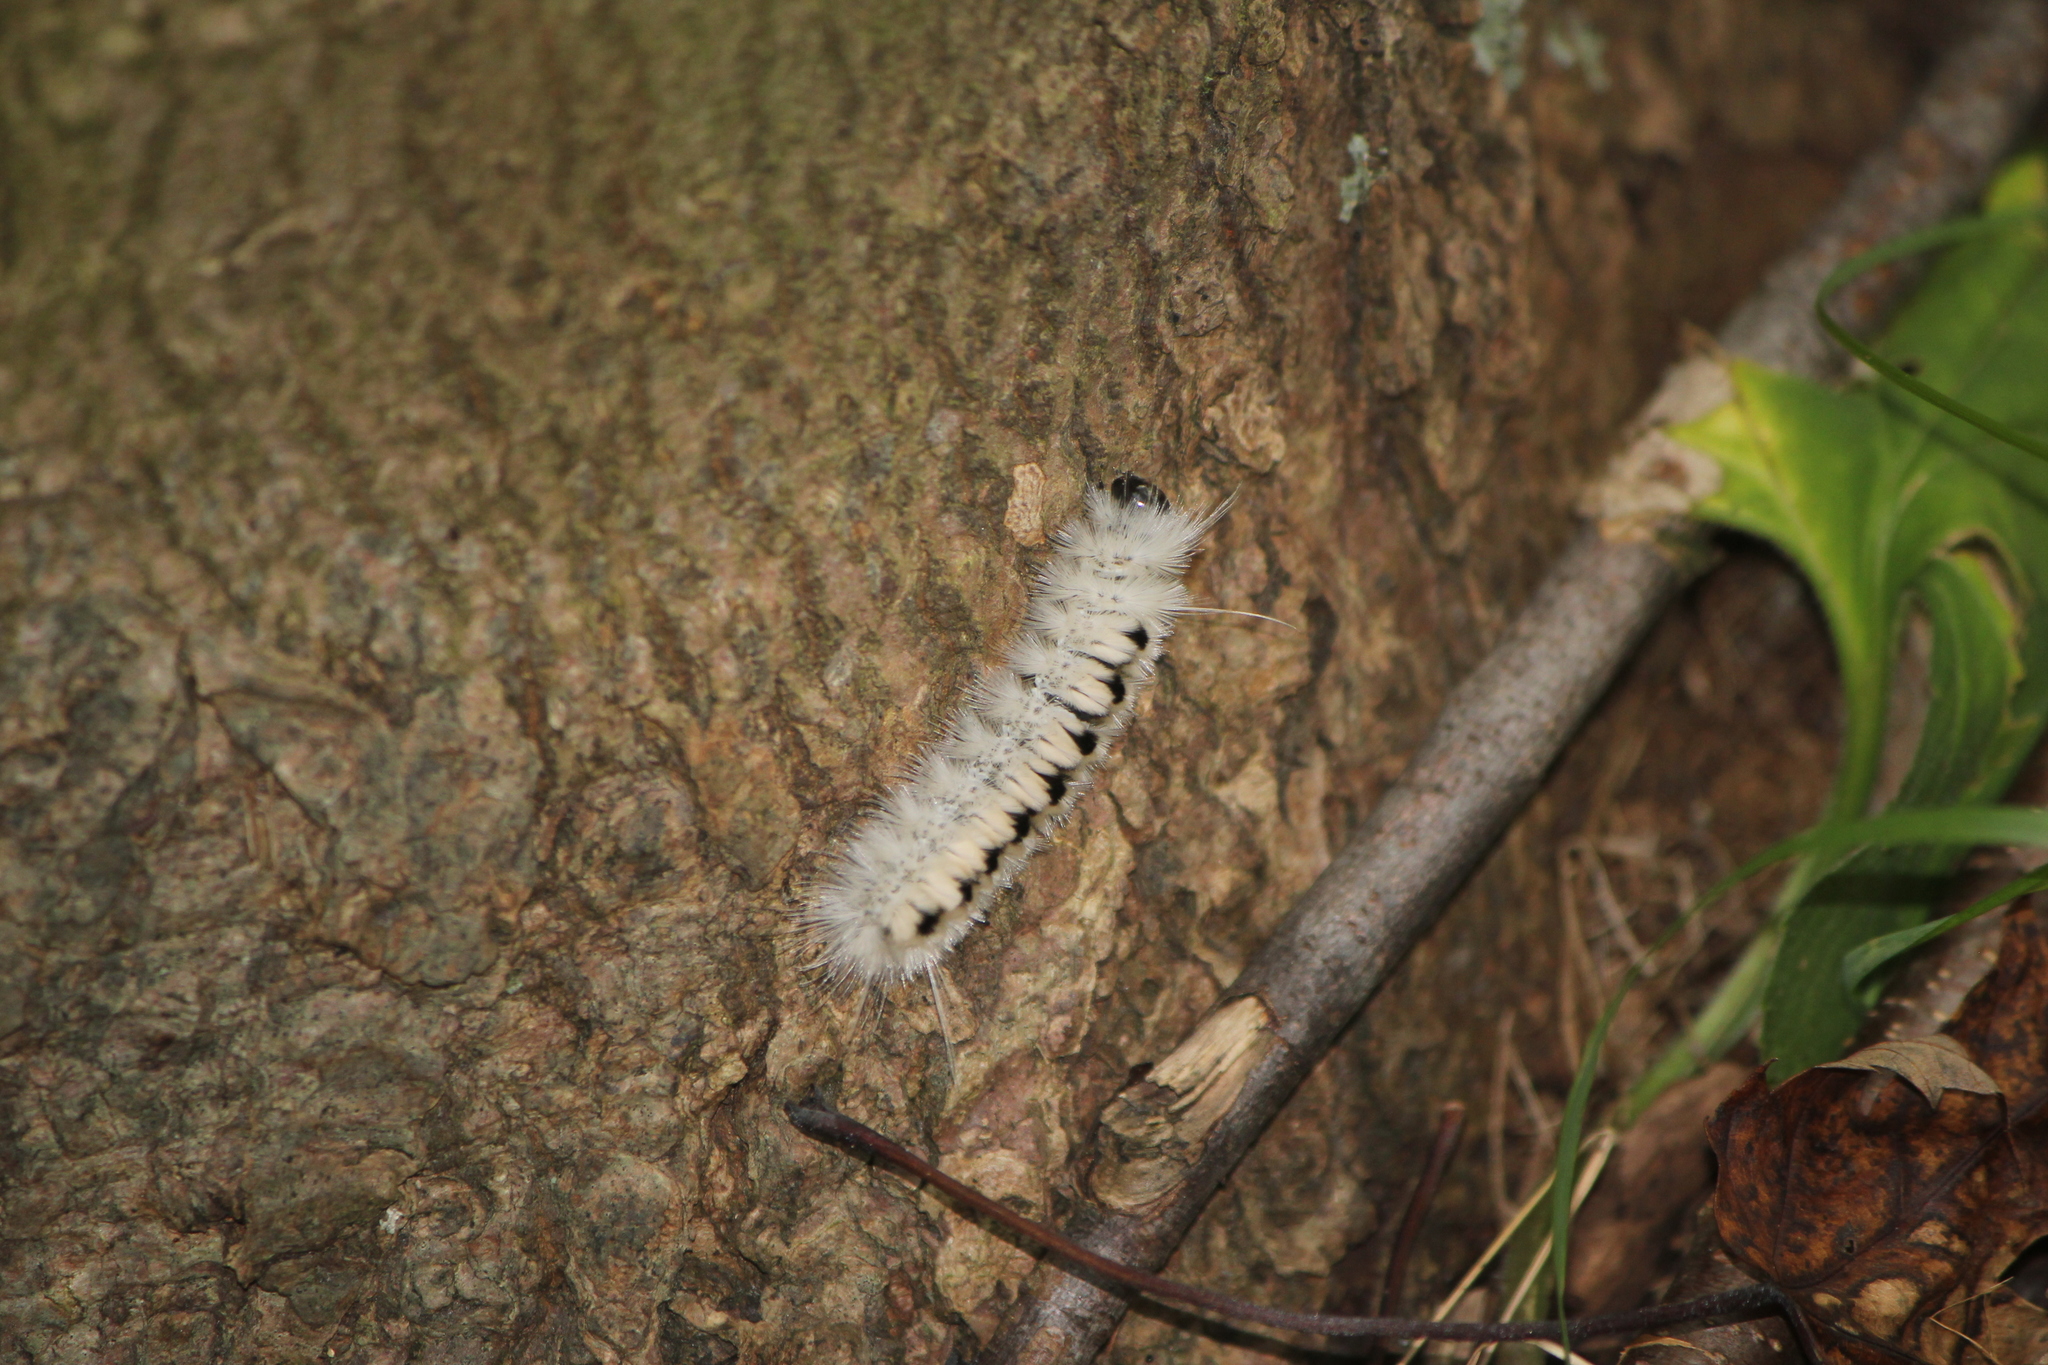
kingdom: Animalia
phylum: Arthropoda
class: Insecta
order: Lepidoptera
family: Erebidae
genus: Lophocampa
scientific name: Lophocampa caryae
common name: Hickory tussock moth
